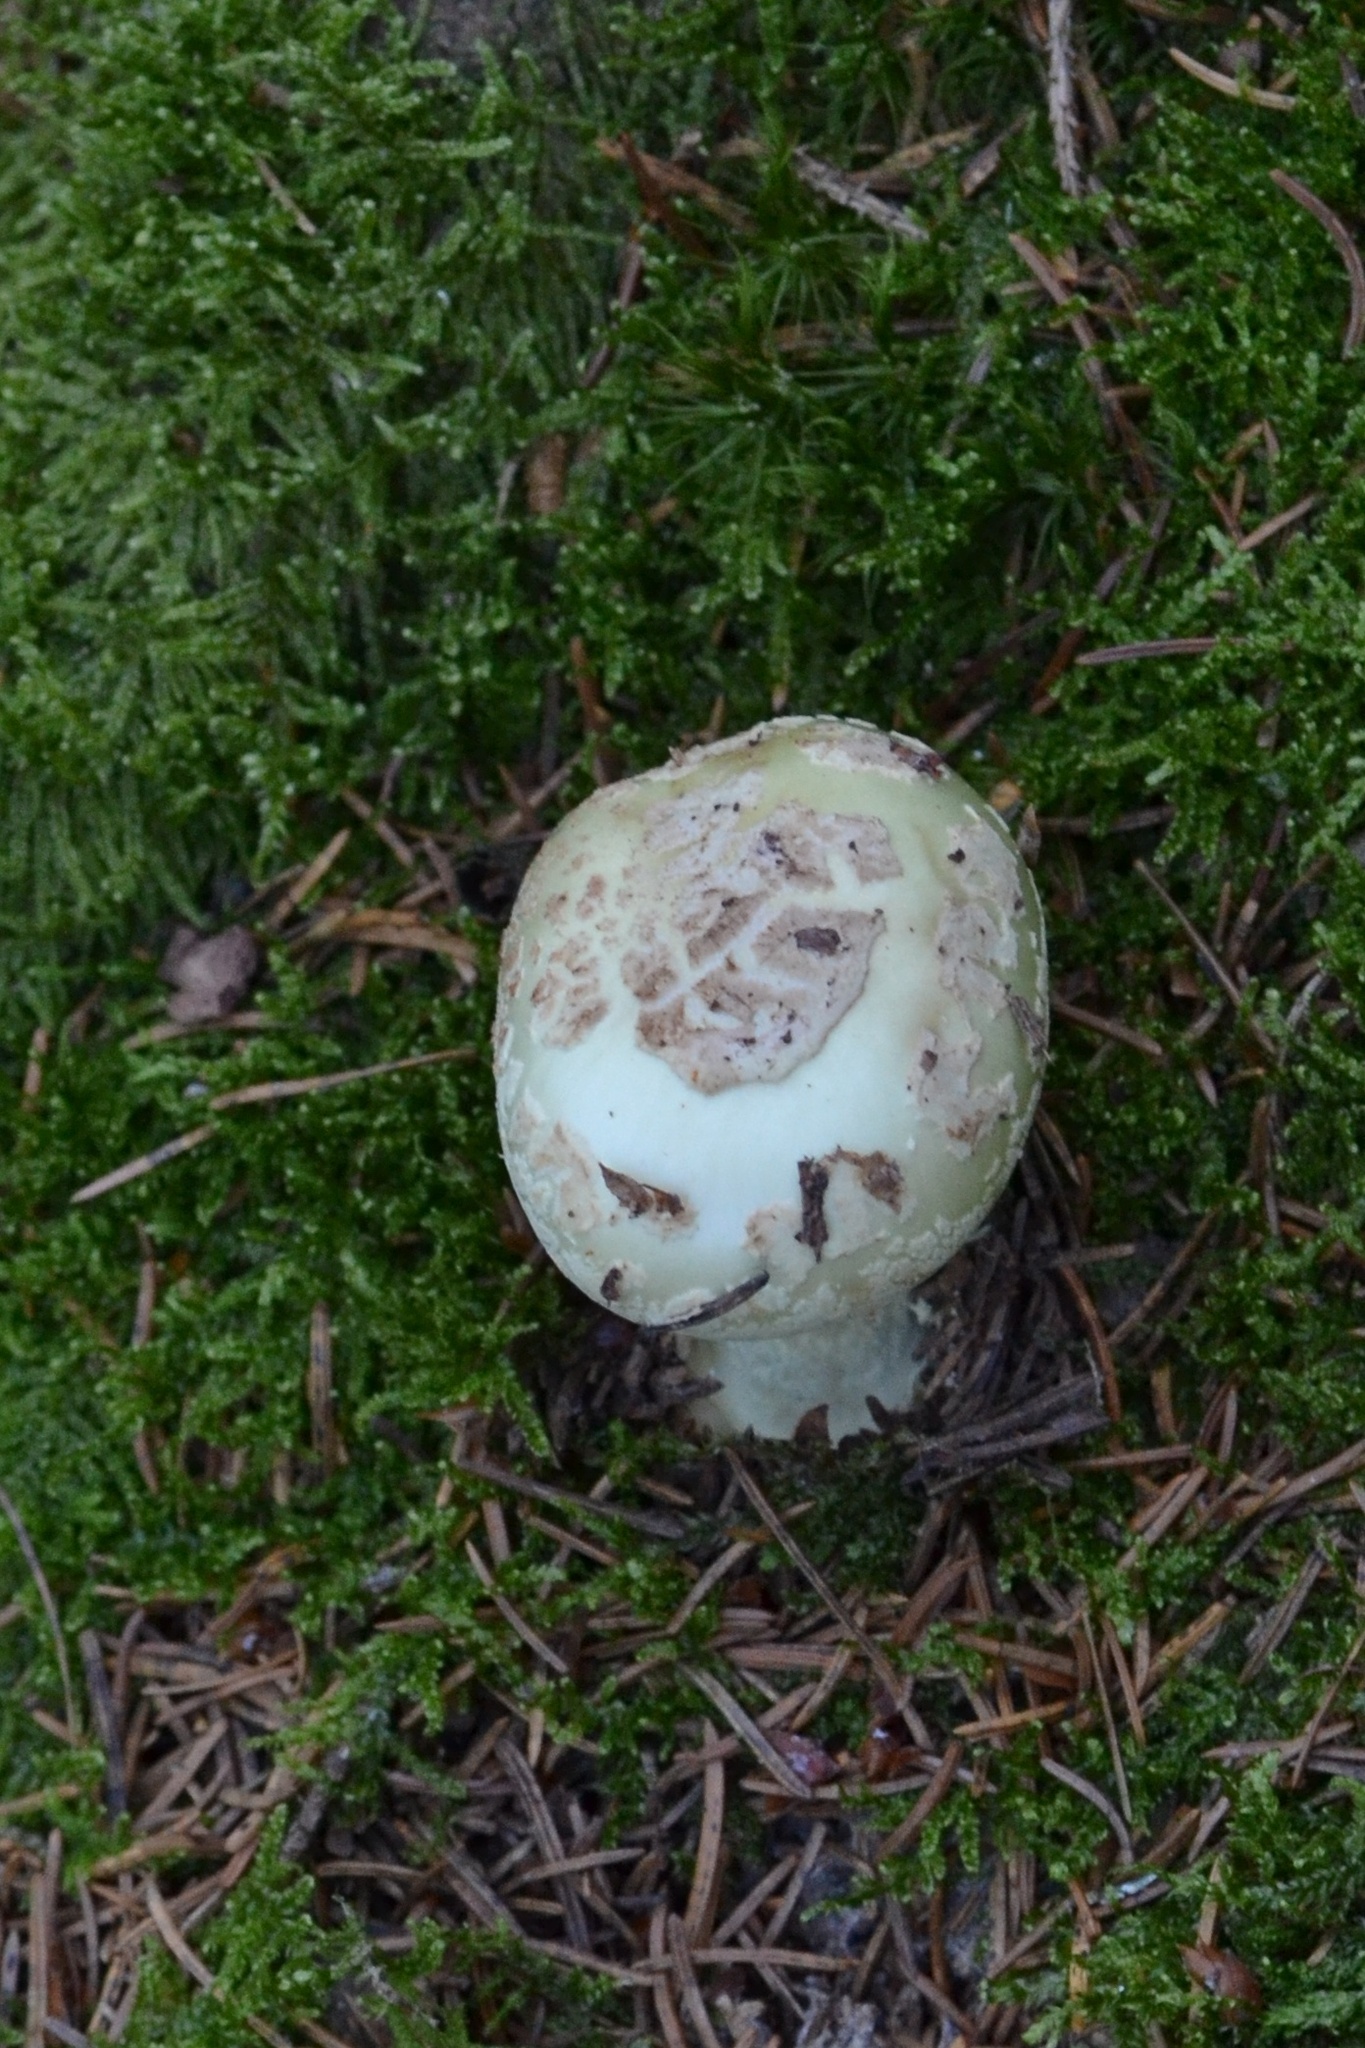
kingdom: Fungi
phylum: Basidiomycota
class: Agaricomycetes
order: Agaricales
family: Amanitaceae
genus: Amanita
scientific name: Amanita citrina
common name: False death-cap
